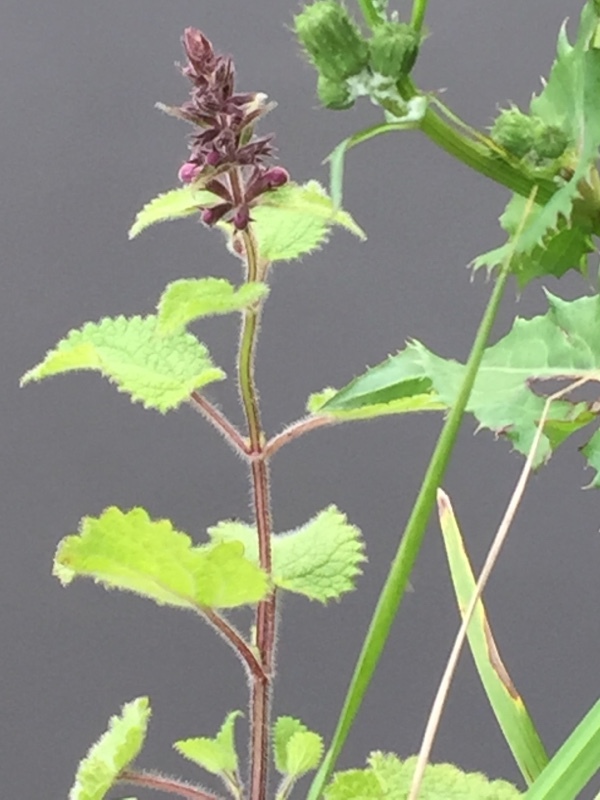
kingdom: Plantae
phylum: Tracheophyta
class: Magnoliopsida
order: Lamiales
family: Lamiaceae
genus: Stachys
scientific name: Stachys sylvatica
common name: Hedge woundwort
